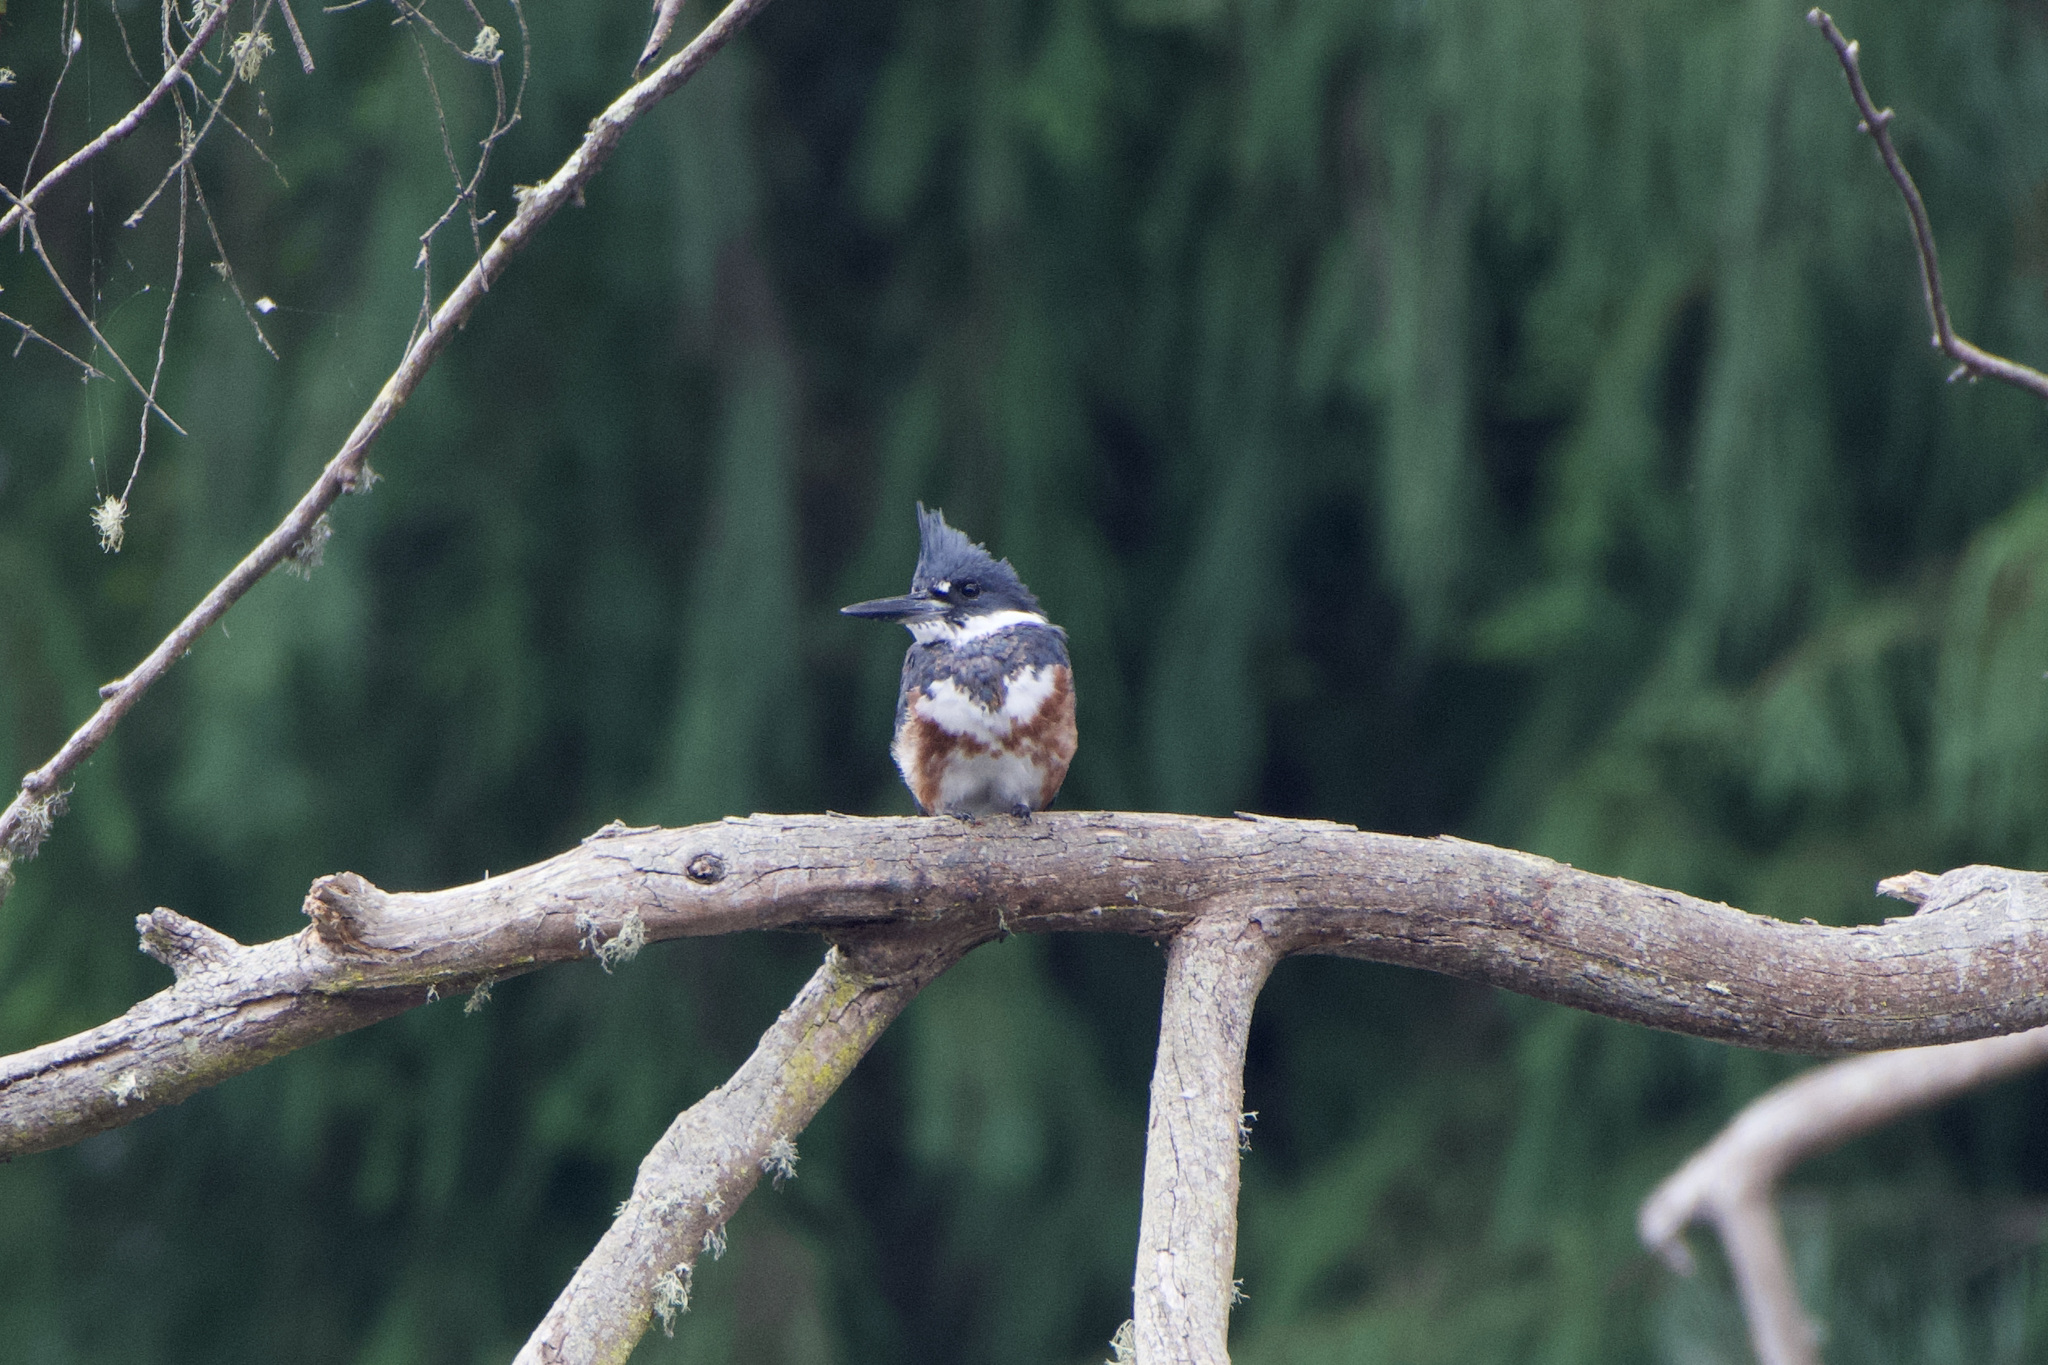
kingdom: Animalia
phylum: Chordata
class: Aves
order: Coraciiformes
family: Alcedinidae
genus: Megaceryle
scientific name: Megaceryle alcyon
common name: Belted kingfisher
